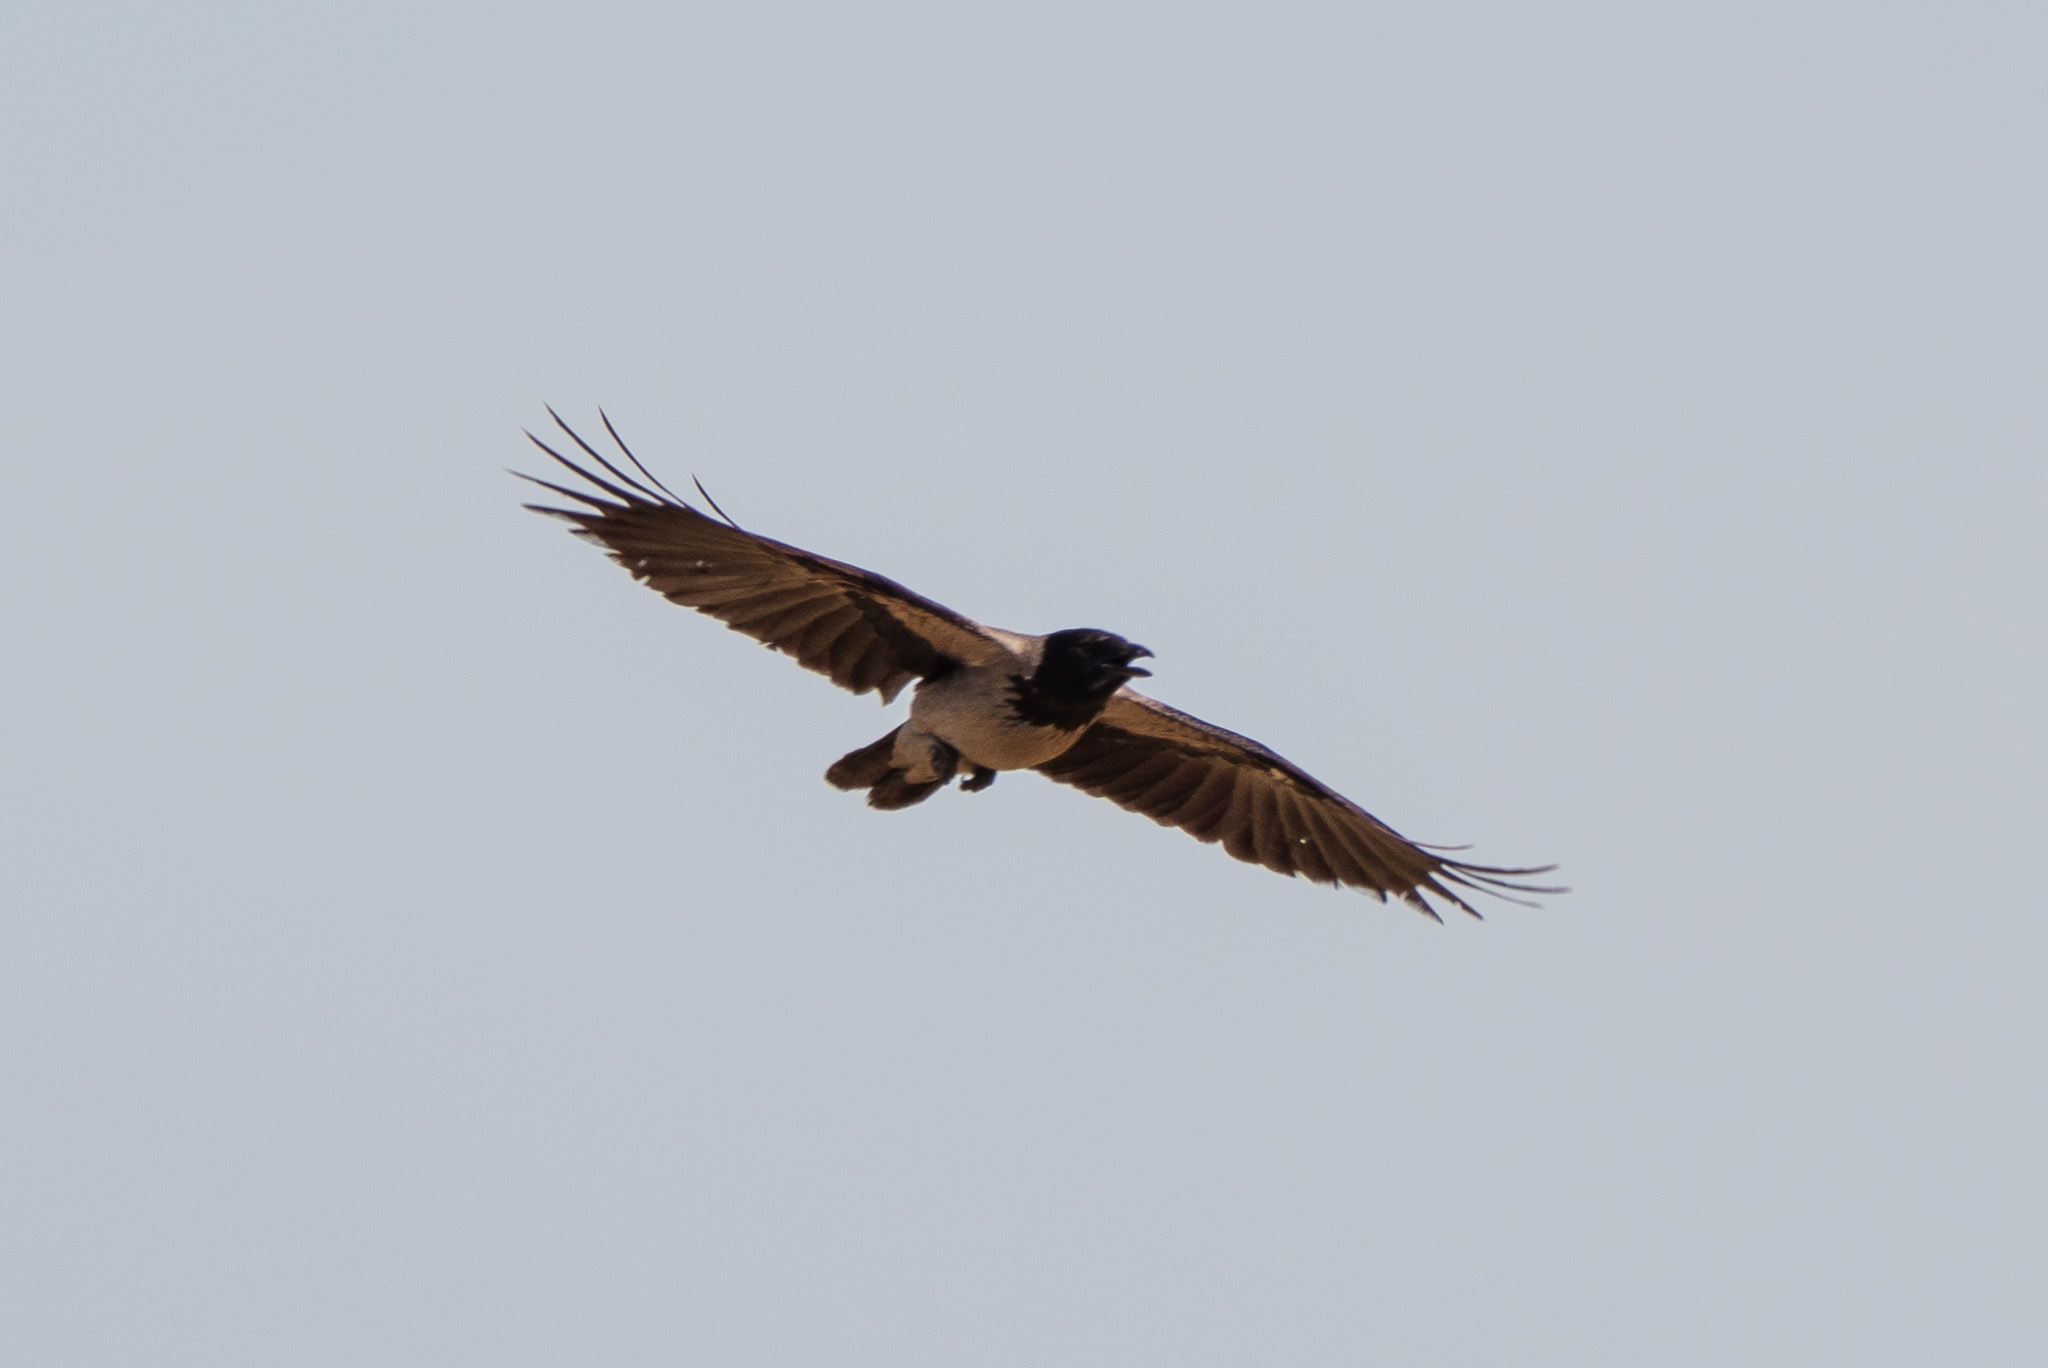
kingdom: Animalia
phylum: Chordata
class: Aves
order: Passeriformes
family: Corvidae
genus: Corvus
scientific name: Corvus cornix
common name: Hooded crow
